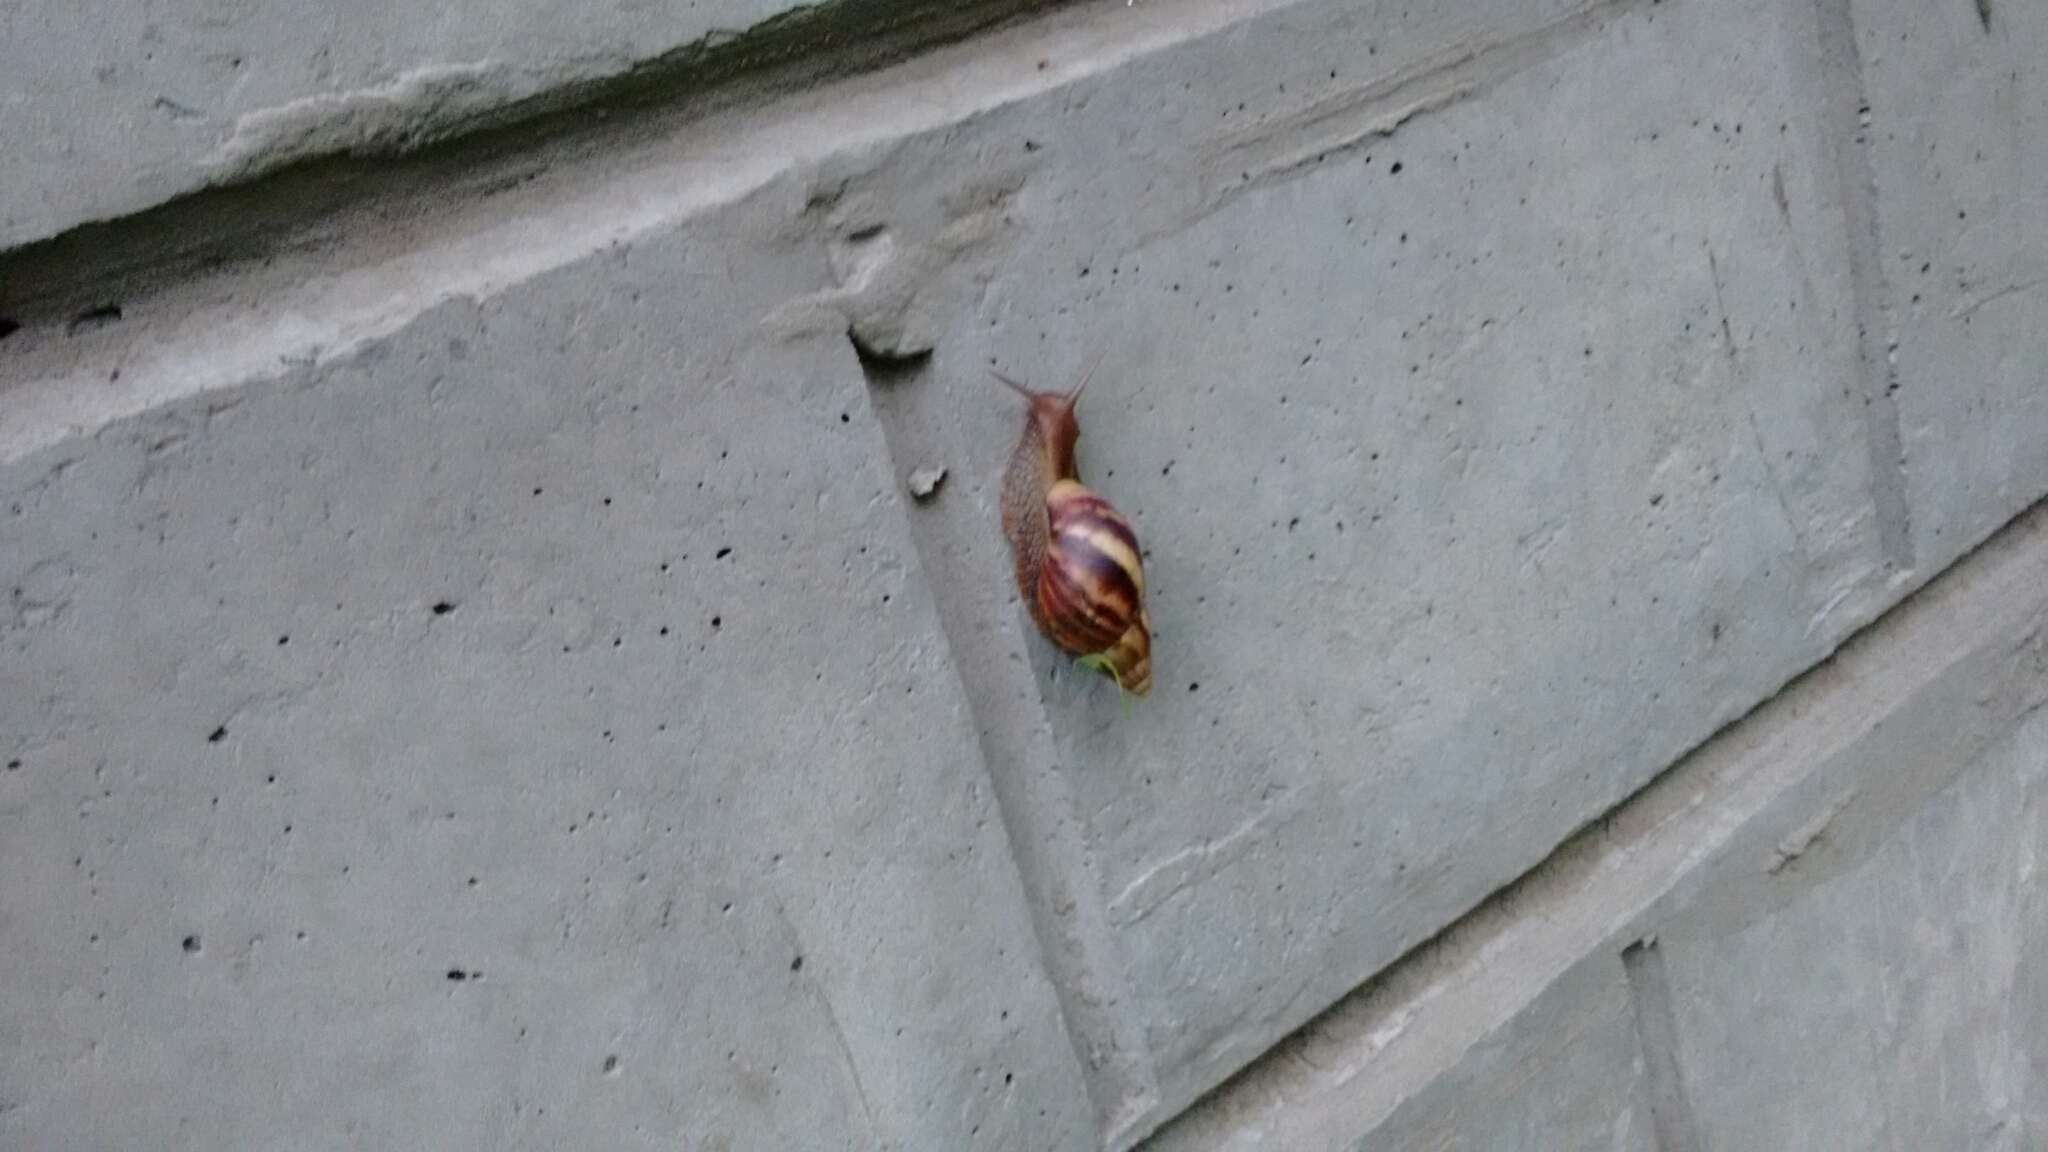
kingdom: Animalia
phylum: Mollusca
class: Gastropoda
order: Stylommatophora
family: Achatinidae
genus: Lissachatina
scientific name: Lissachatina fulica
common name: Giant african snail
